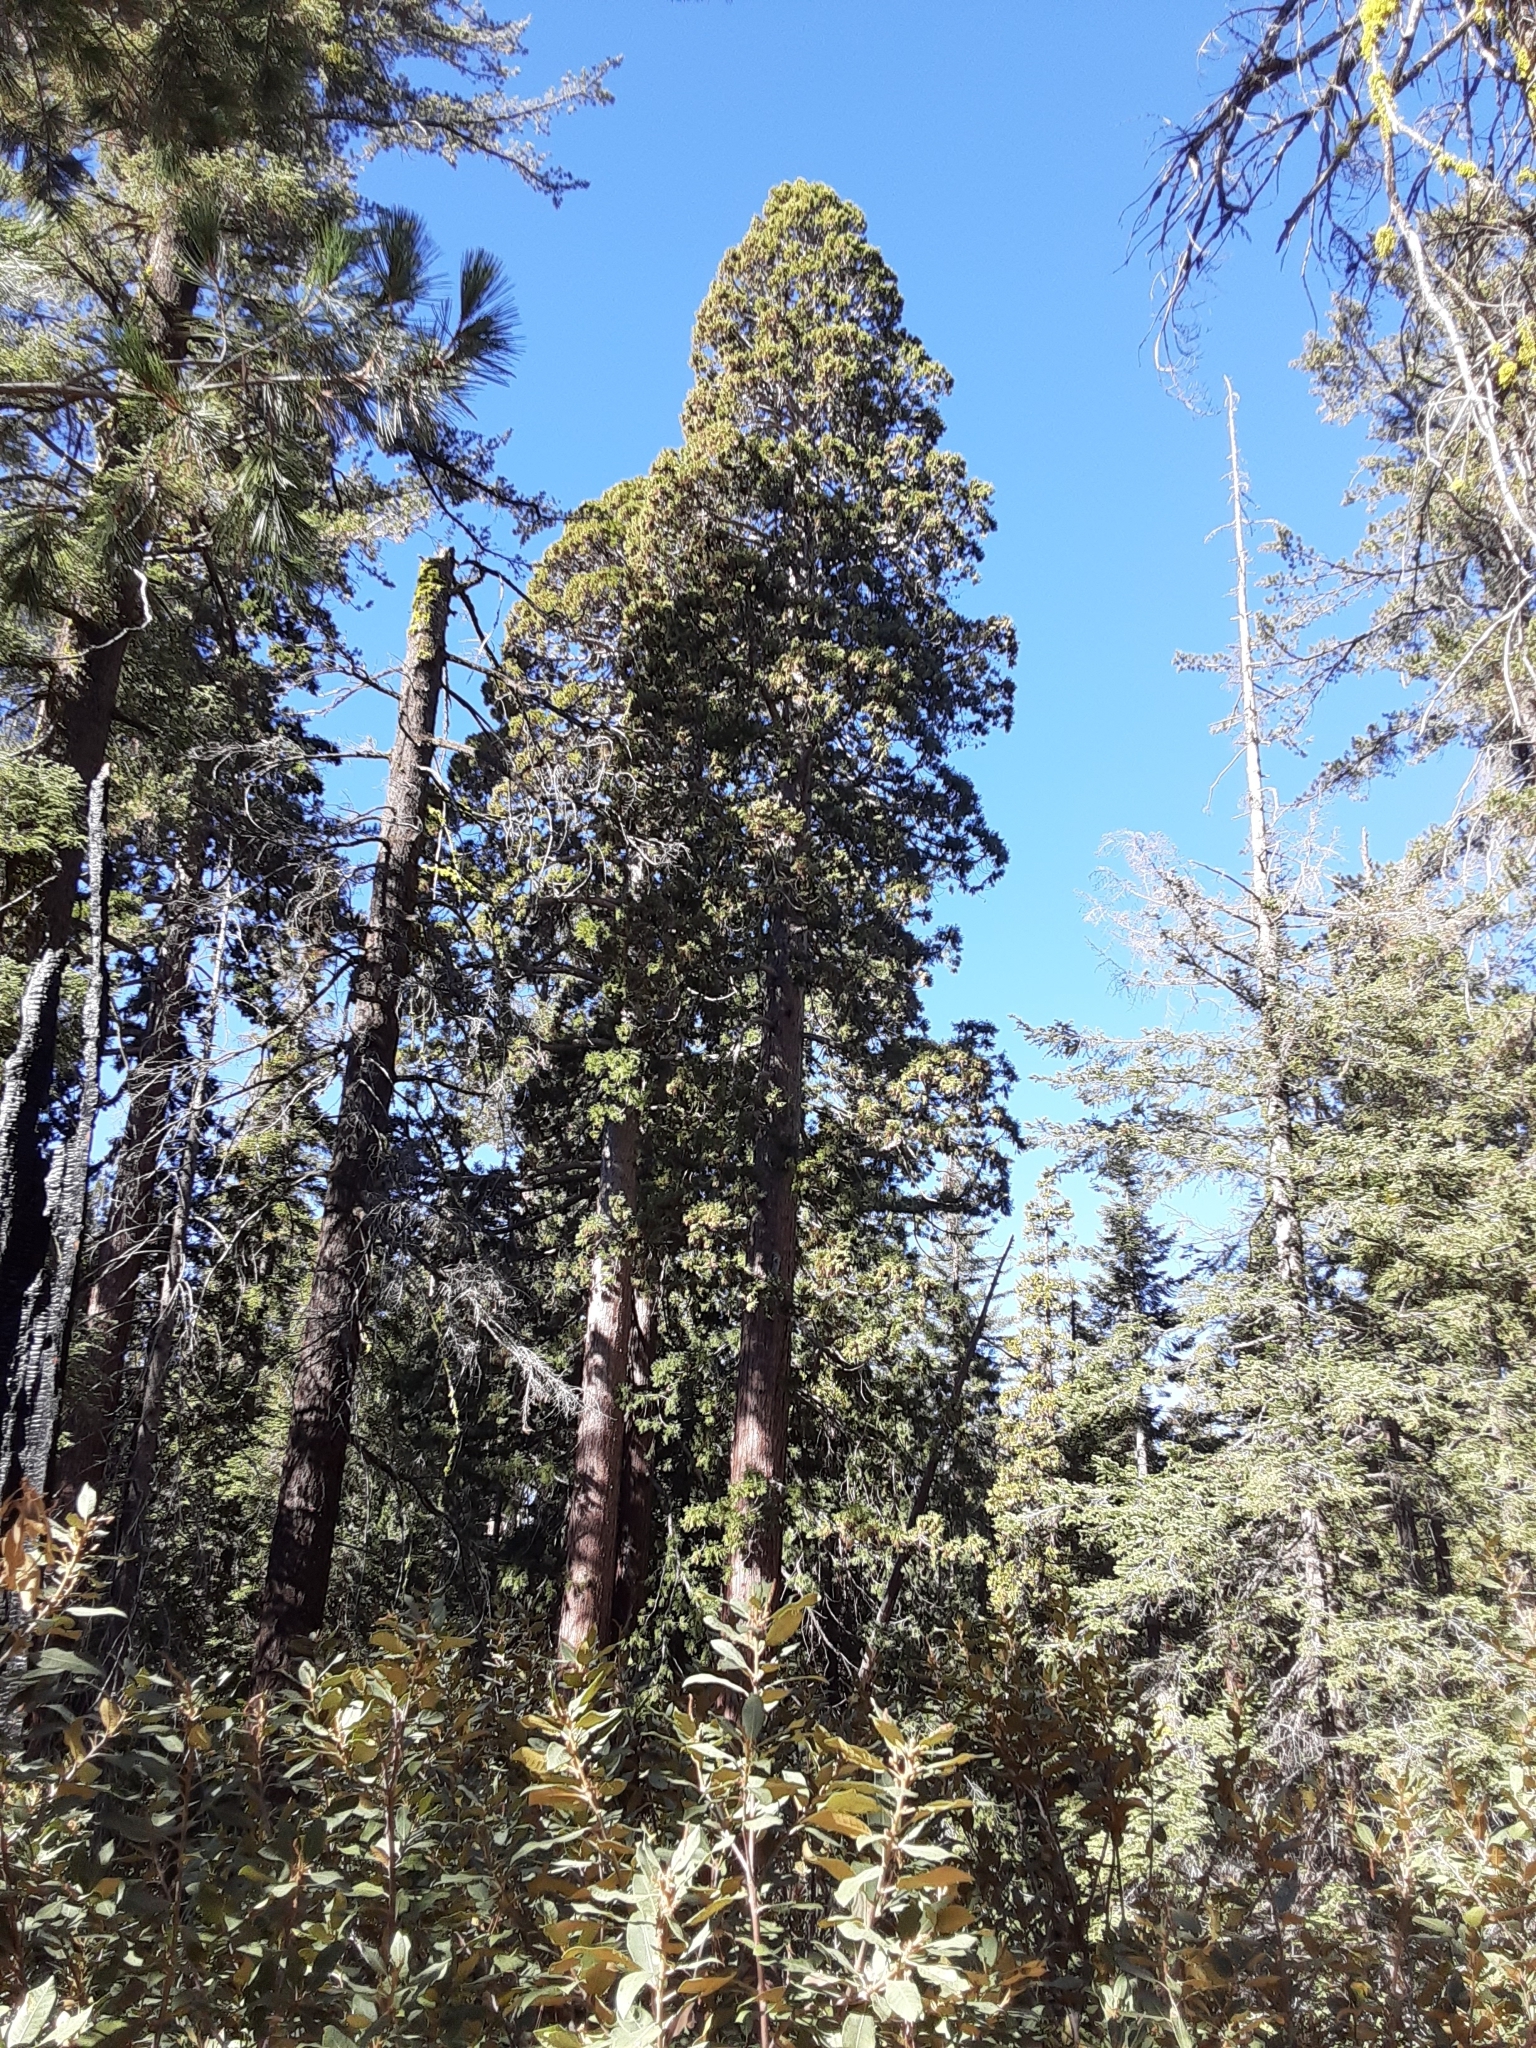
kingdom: Plantae
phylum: Tracheophyta
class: Pinopsida
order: Pinales
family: Cupressaceae
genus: Sequoiadendron
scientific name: Sequoiadendron giganteum
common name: Wellingtonia
